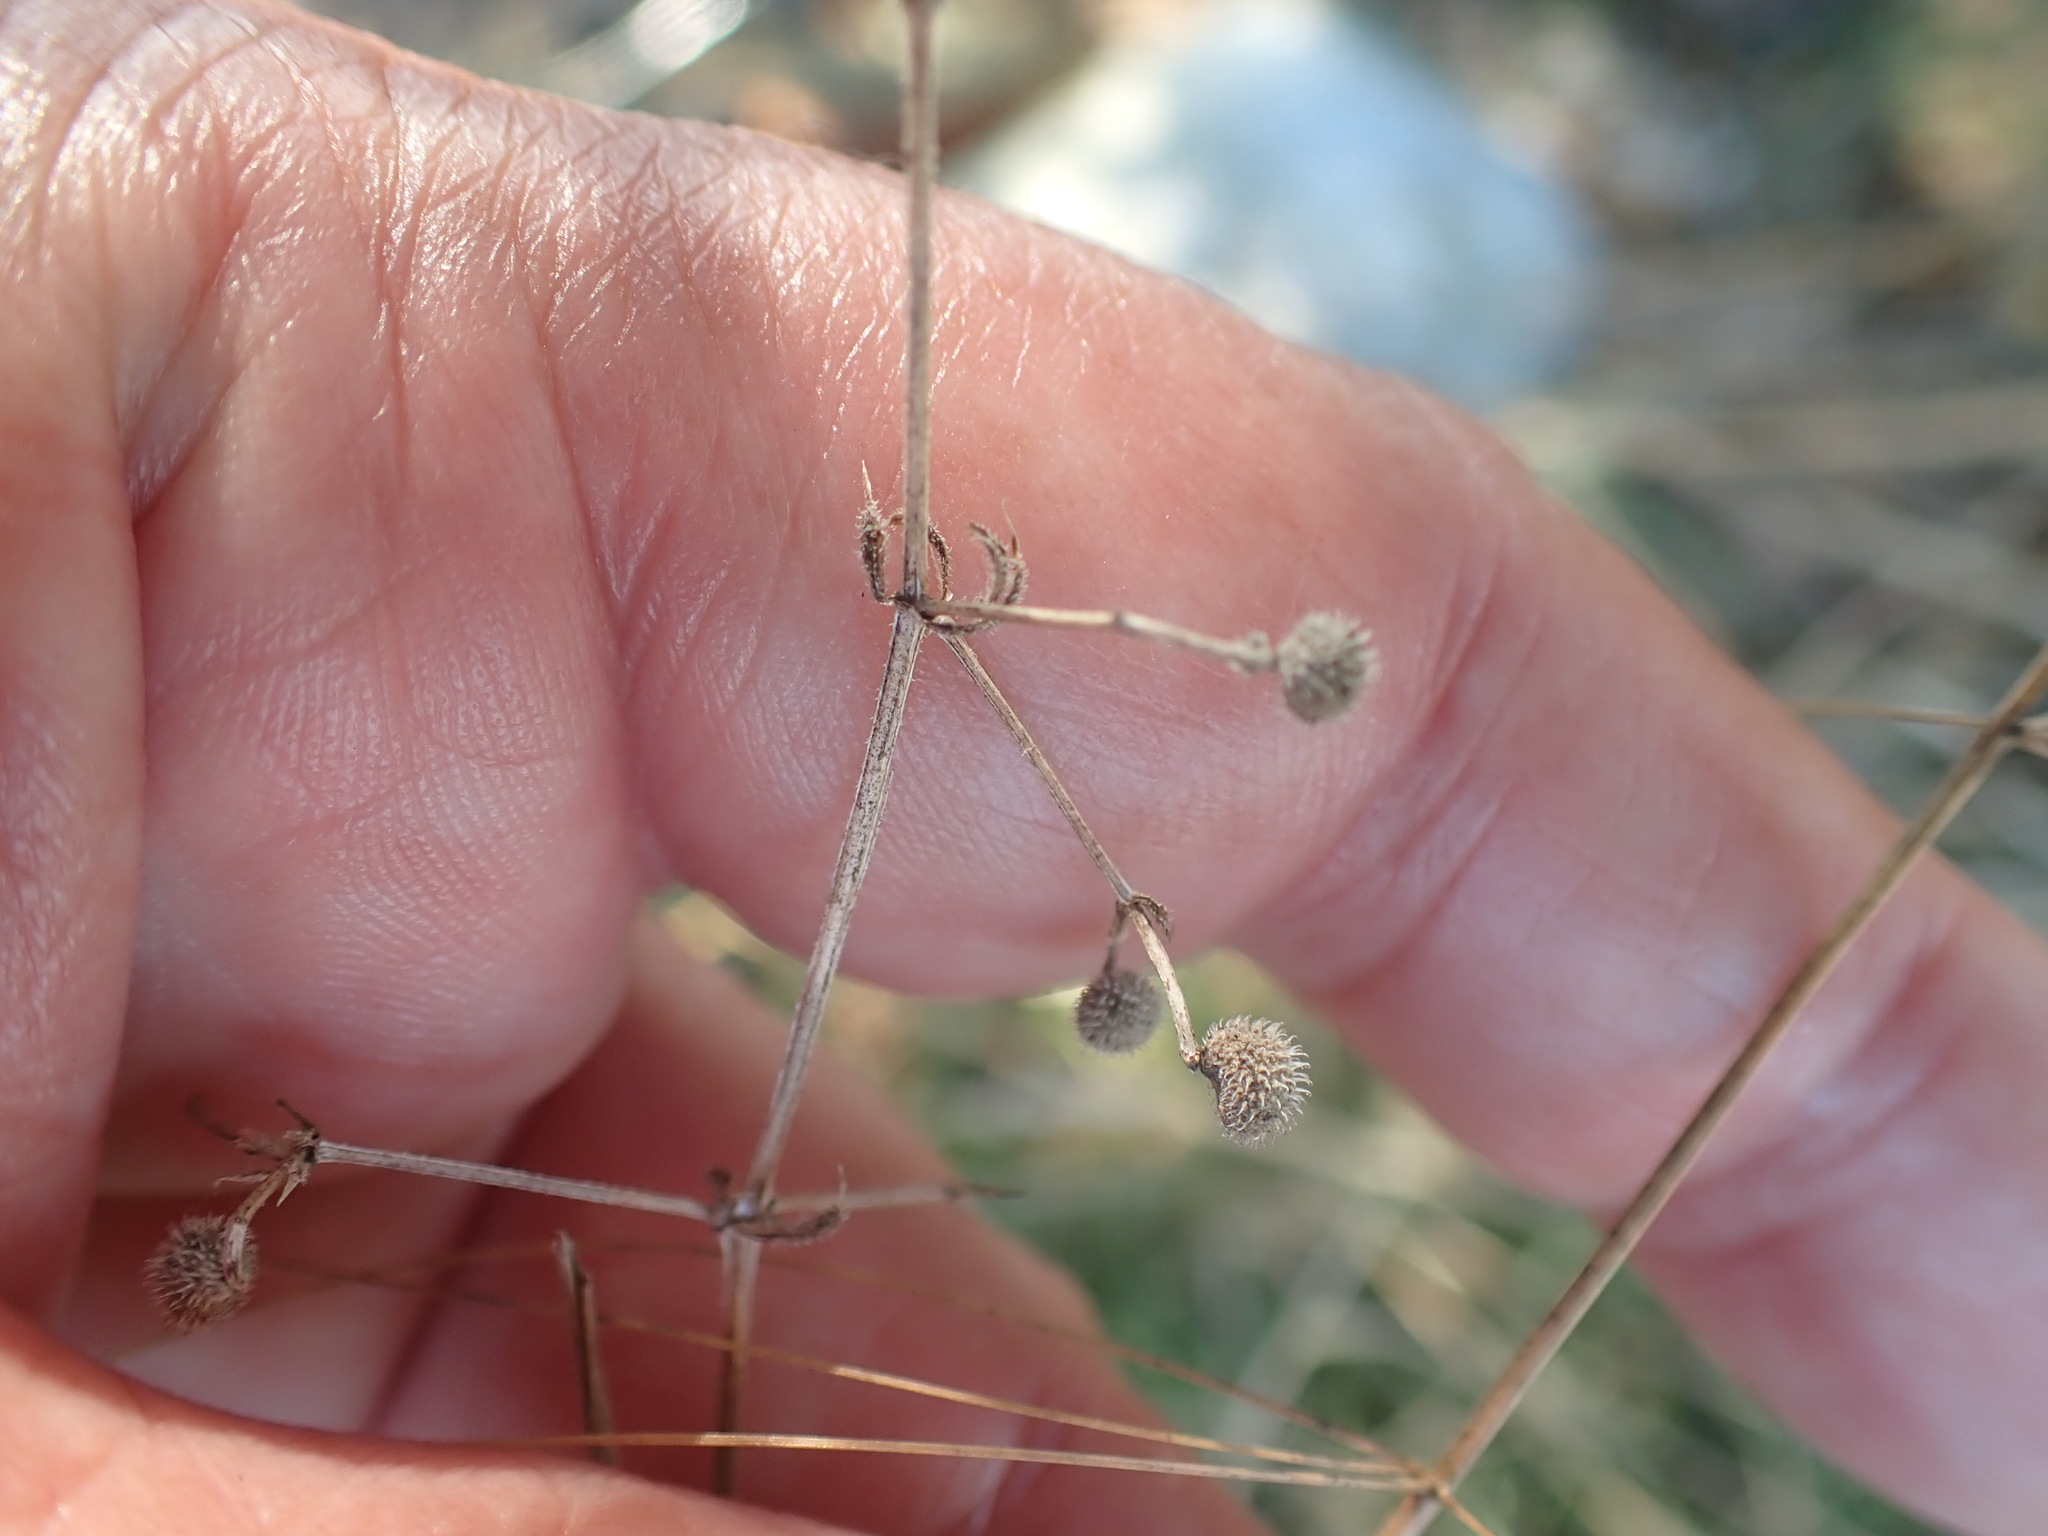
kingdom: Plantae
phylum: Tracheophyta
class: Magnoliopsida
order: Gentianales
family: Rubiaceae
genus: Galium
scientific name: Galium aparine
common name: Cleavers
